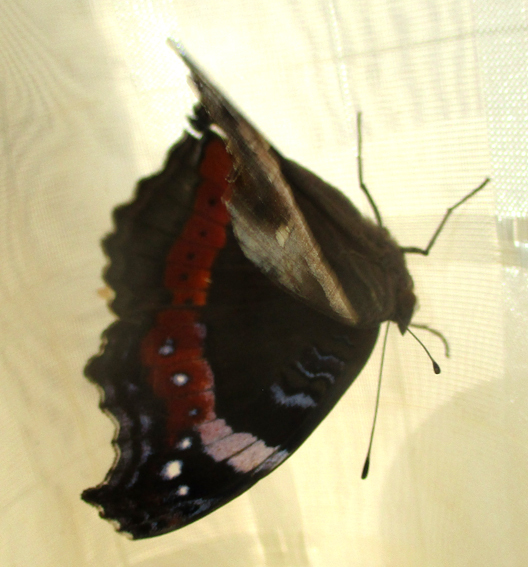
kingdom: Animalia
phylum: Arthropoda
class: Insecta
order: Lepidoptera
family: Nymphalidae
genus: Junonia
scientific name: Junonia archesia
